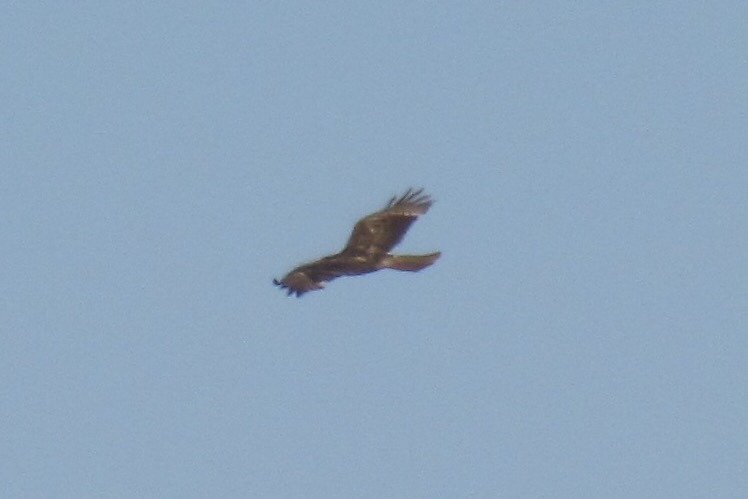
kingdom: Animalia
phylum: Chordata
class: Aves
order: Accipitriformes
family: Accipitridae
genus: Buteo
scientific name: Buteo jamaicensis
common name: Red-tailed hawk
